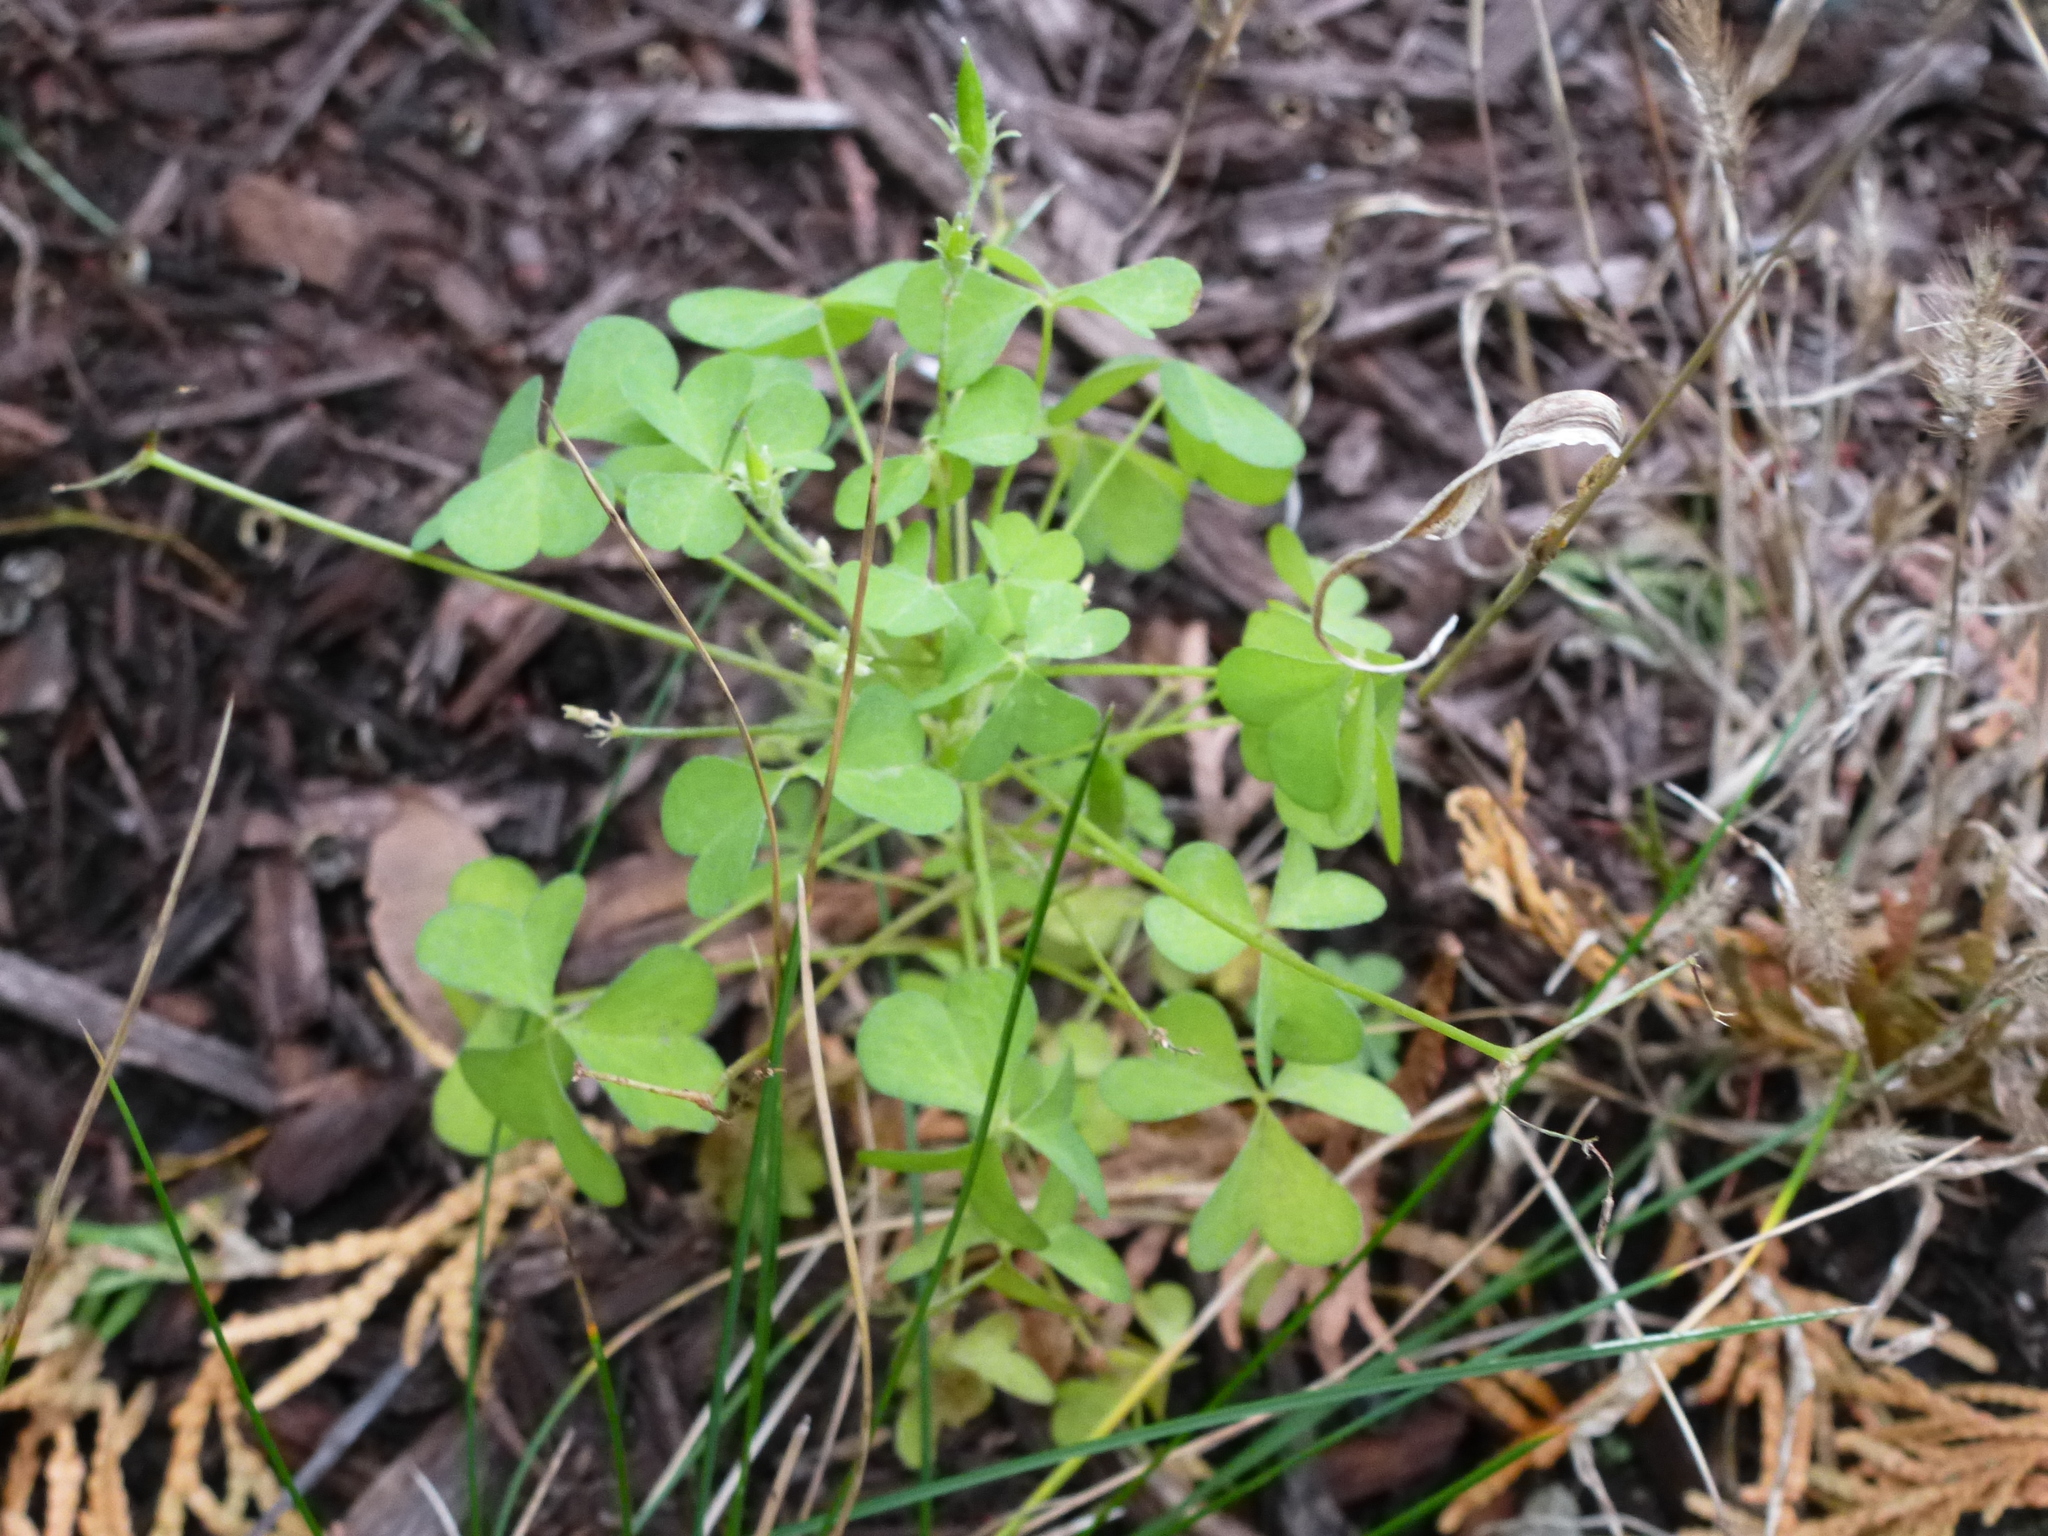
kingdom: Plantae
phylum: Tracheophyta
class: Magnoliopsida
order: Oxalidales
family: Oxalidaceae
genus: Oxalis
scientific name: Oxalis stricta
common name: Upright yellow-sorrel
